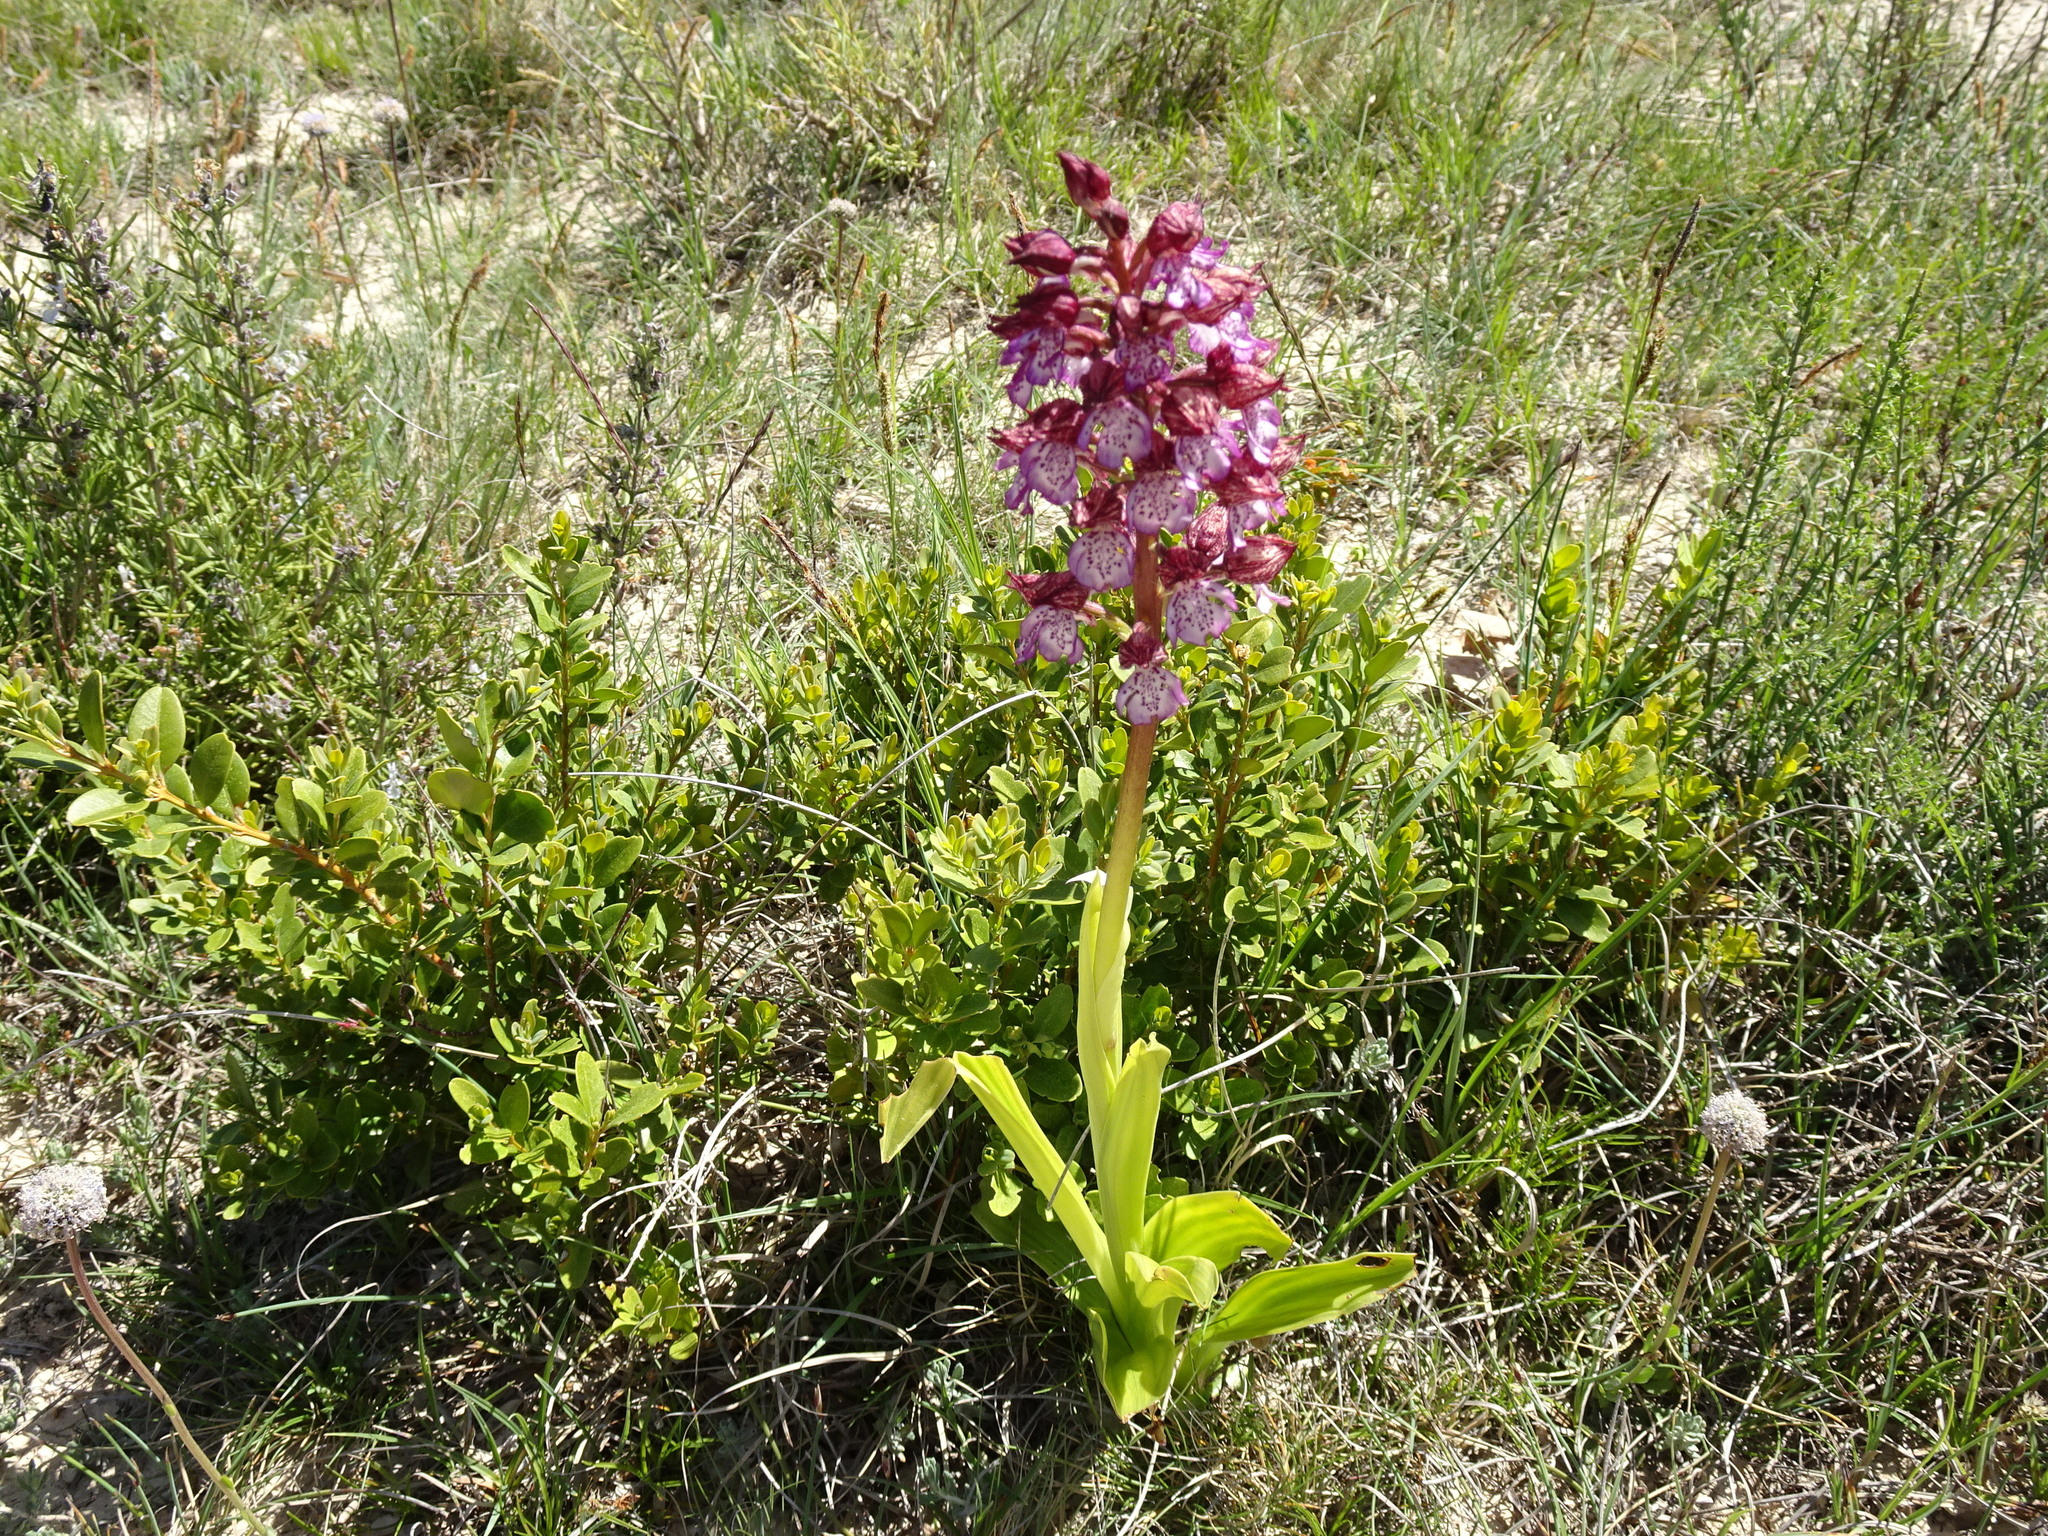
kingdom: Plantae
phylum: Tracheophyta
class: Liliopsida
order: Asparagales
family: Orchidaceae
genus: Orchis
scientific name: Orchis purpurea
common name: Lady orchid
